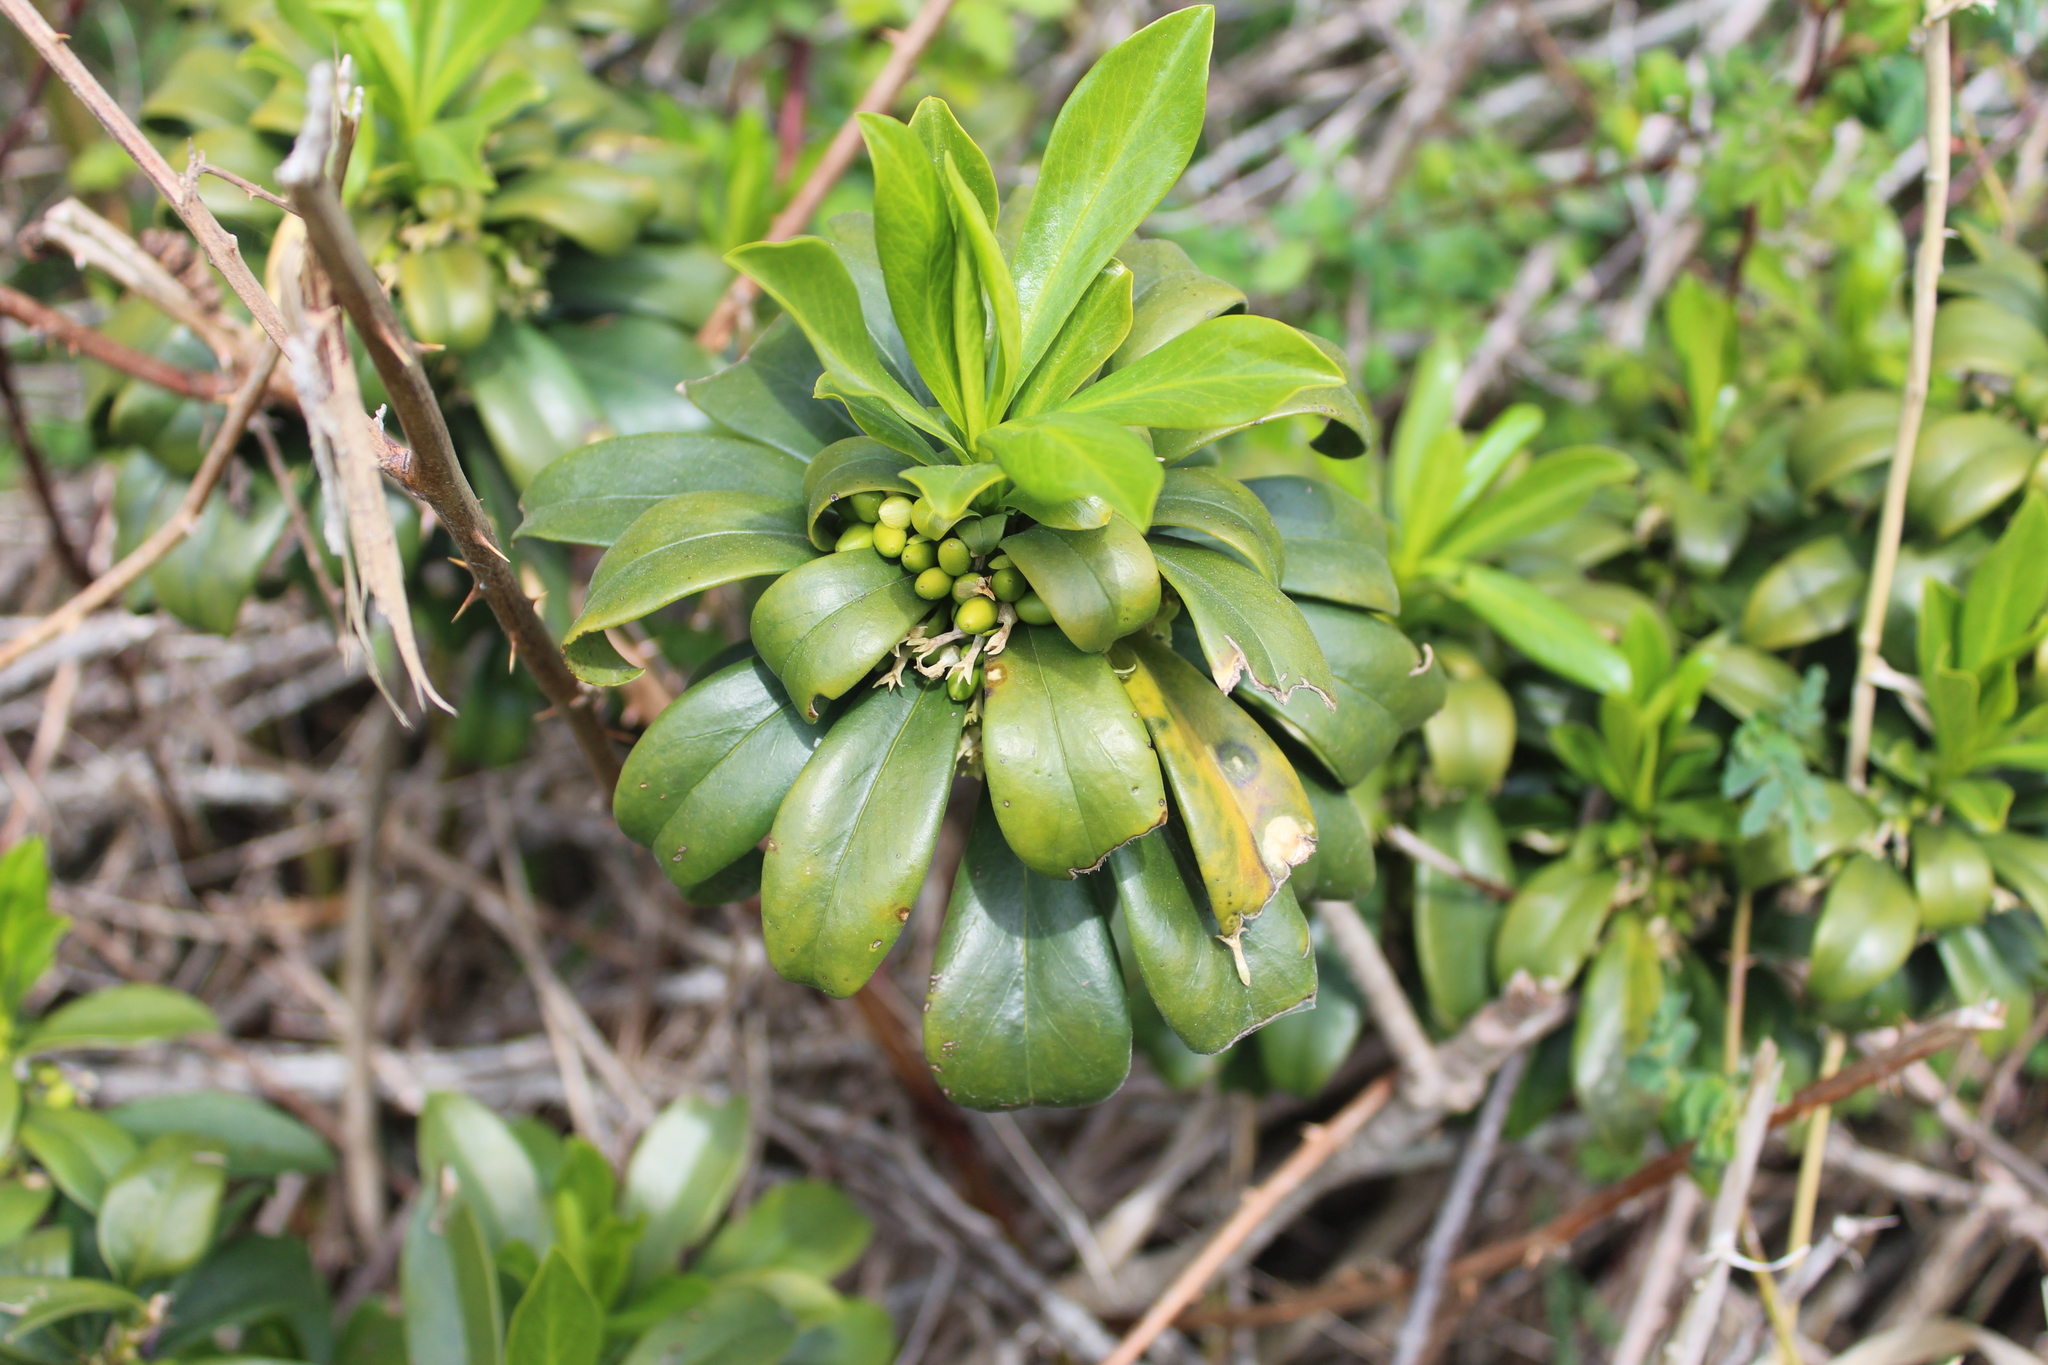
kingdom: Plantae
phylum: Tracheophyta
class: Magnoliopsida
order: Malvales
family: Thymelaeaceae
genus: Daphne
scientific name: Daphne laureola
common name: Spurge-laurel
